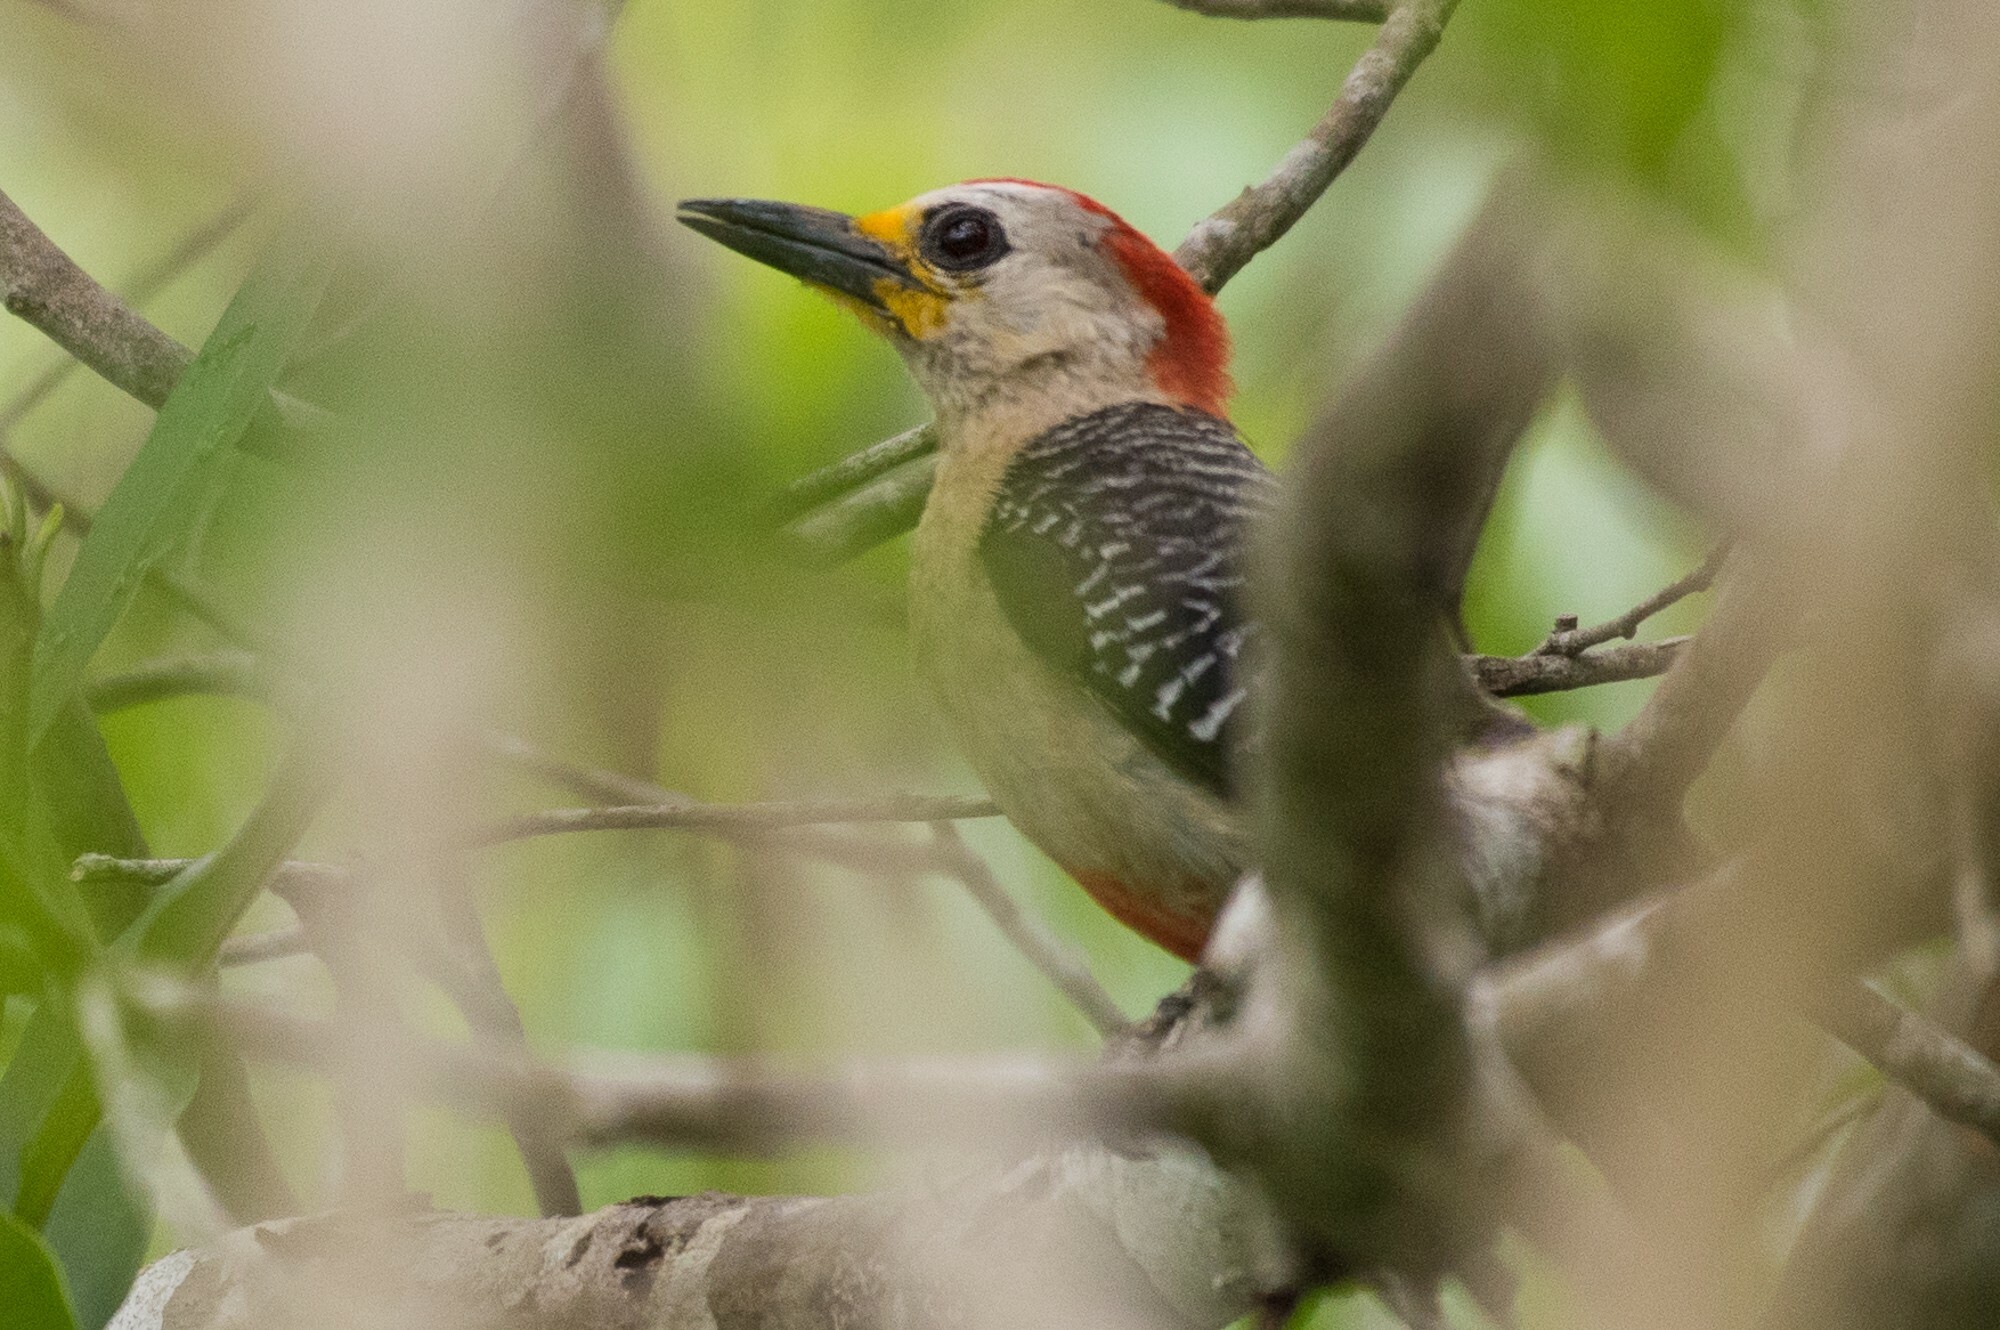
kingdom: Animalia
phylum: Chordata
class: Aves
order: Piciformes
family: Picidae
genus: Melanerpes
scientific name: Melanerpes pygmaeus
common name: Yucatan woodpecker
